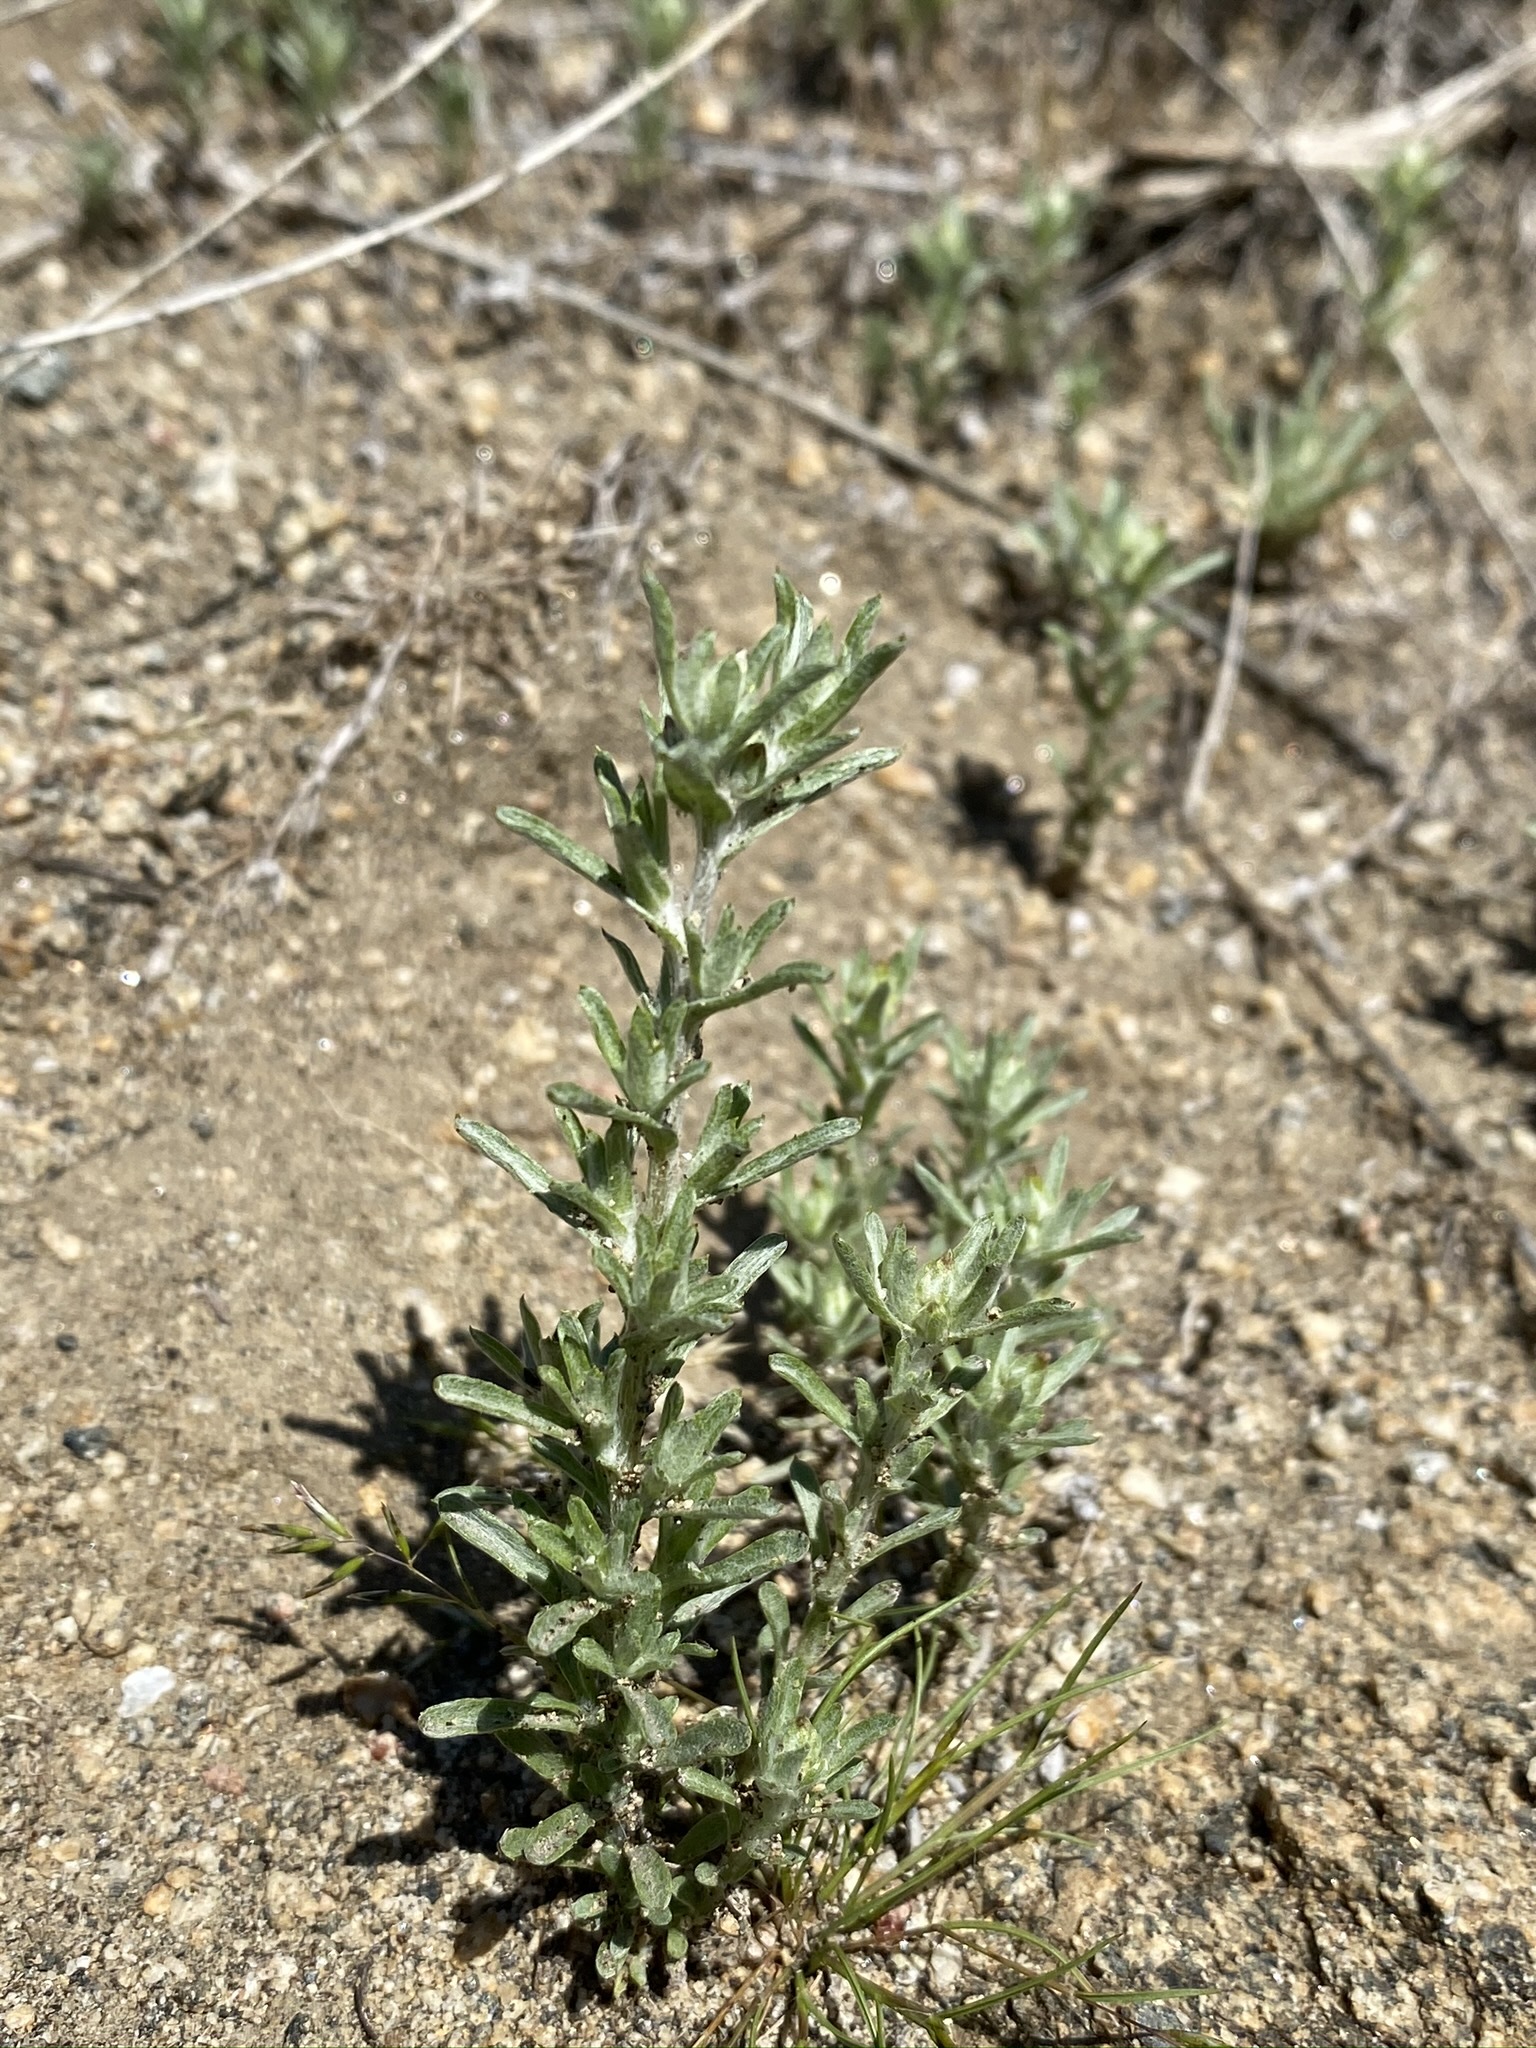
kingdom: Plantae
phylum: Tracheophyta
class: Magnoliopsida
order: Asterales
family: Asteraceae
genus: Logfia
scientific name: Logfia californica
